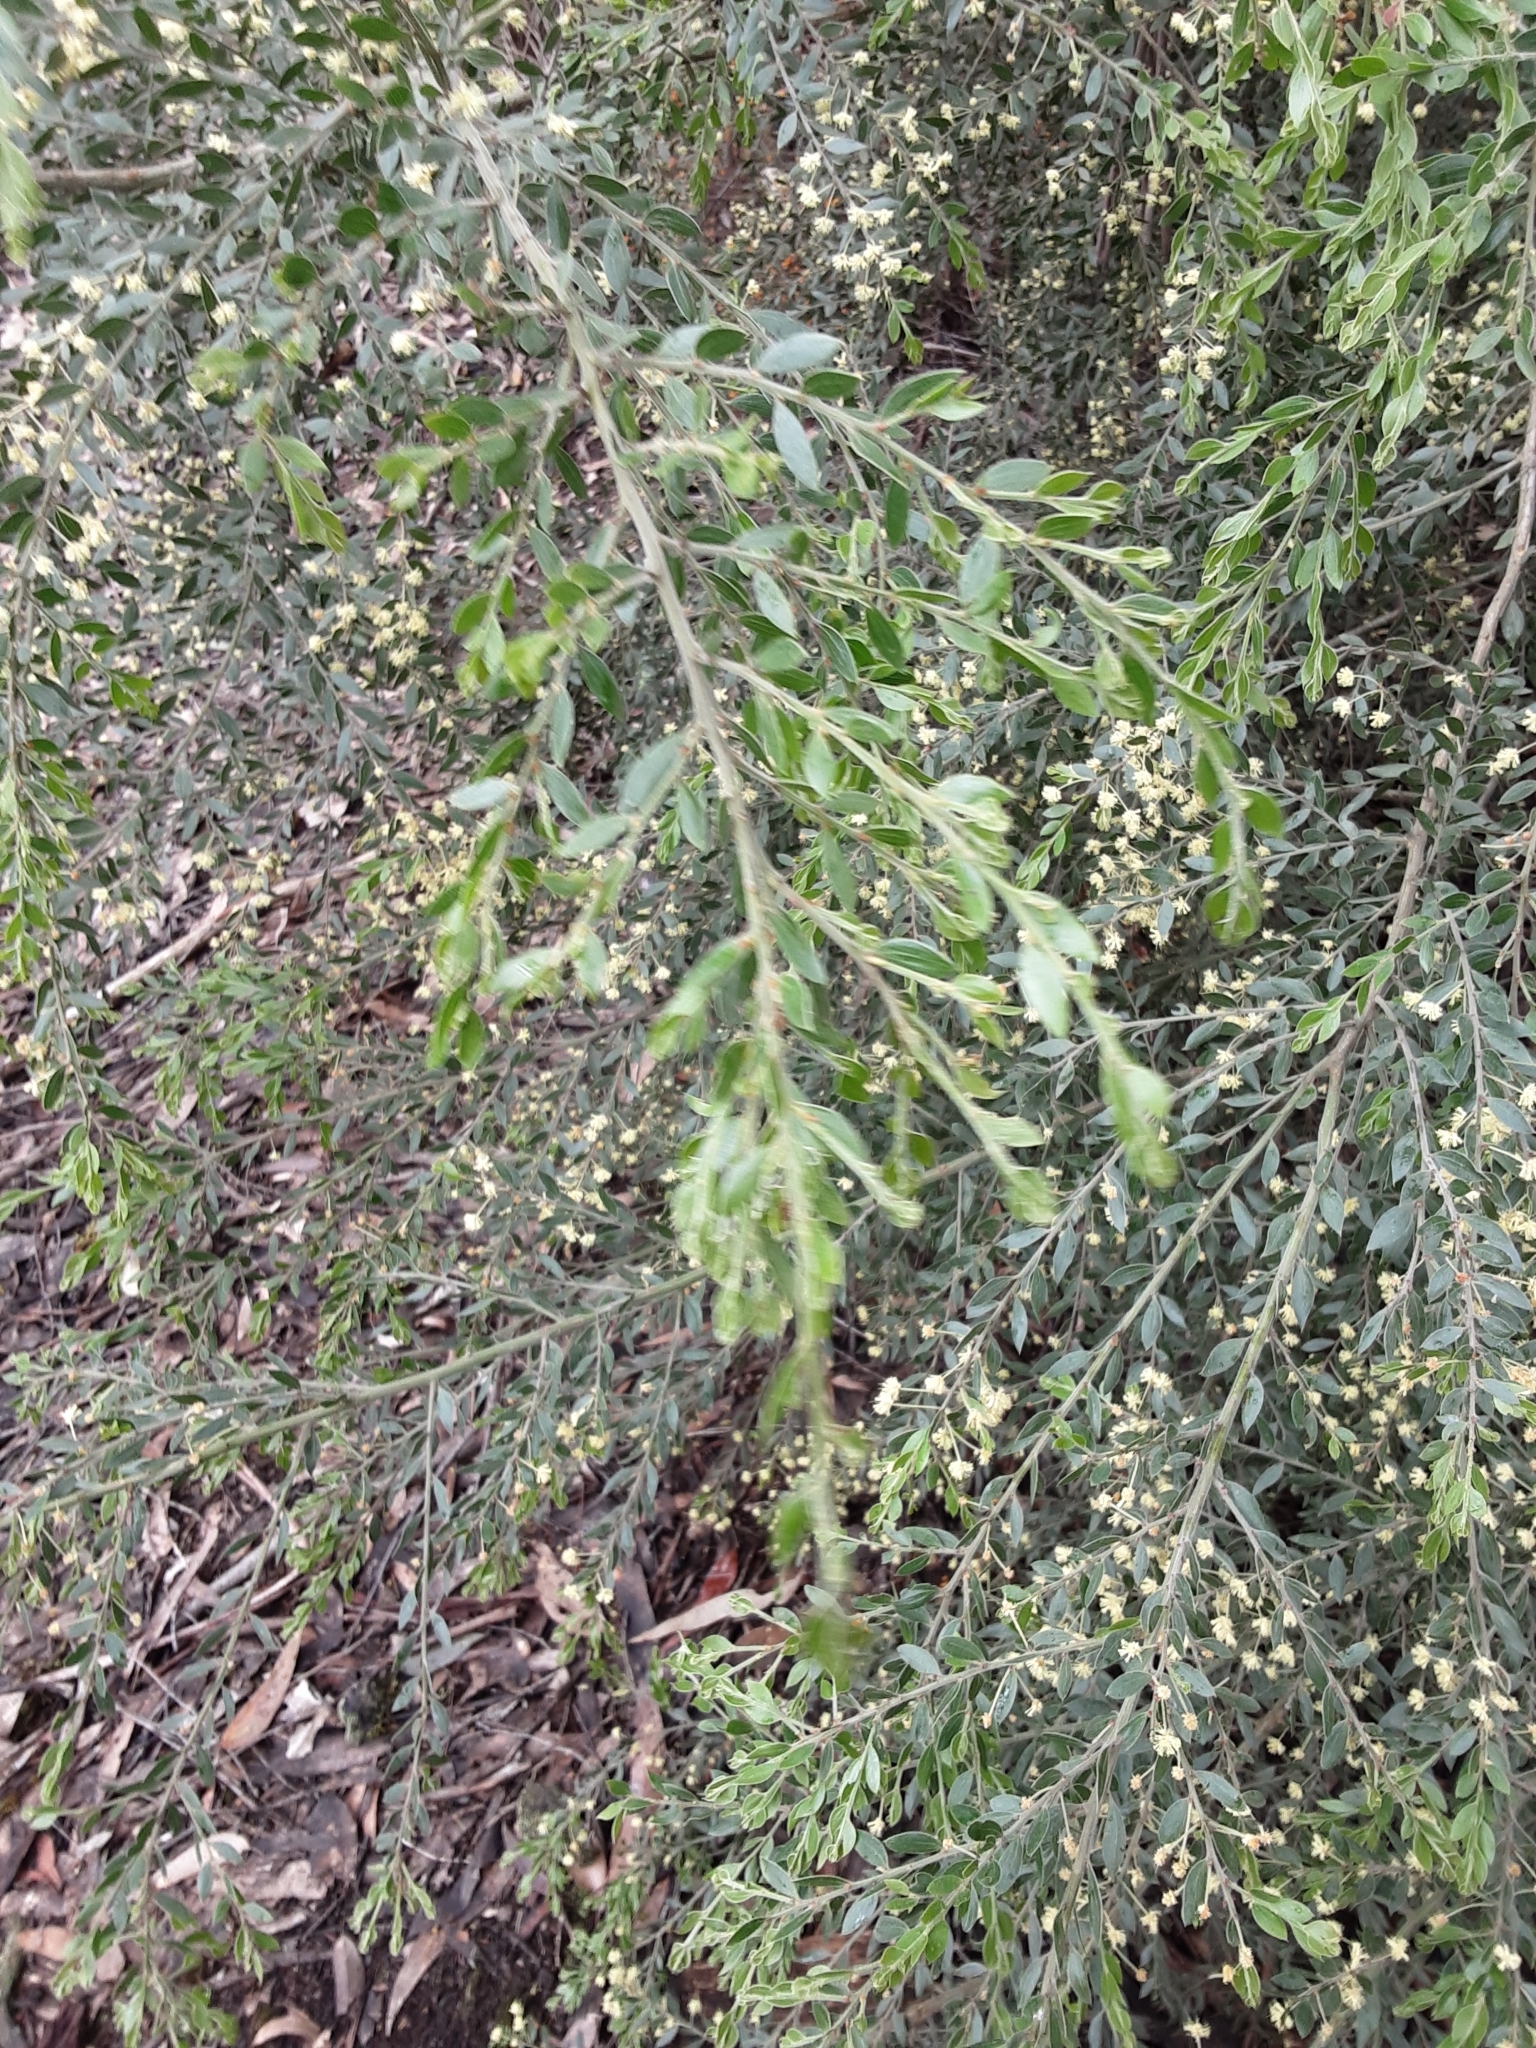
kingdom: Plantae
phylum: Tracheophyta
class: Magnoliopsida
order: Fabales
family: Fabaceae
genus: Acacia
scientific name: Acacia howittii
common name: Sticky wattle
